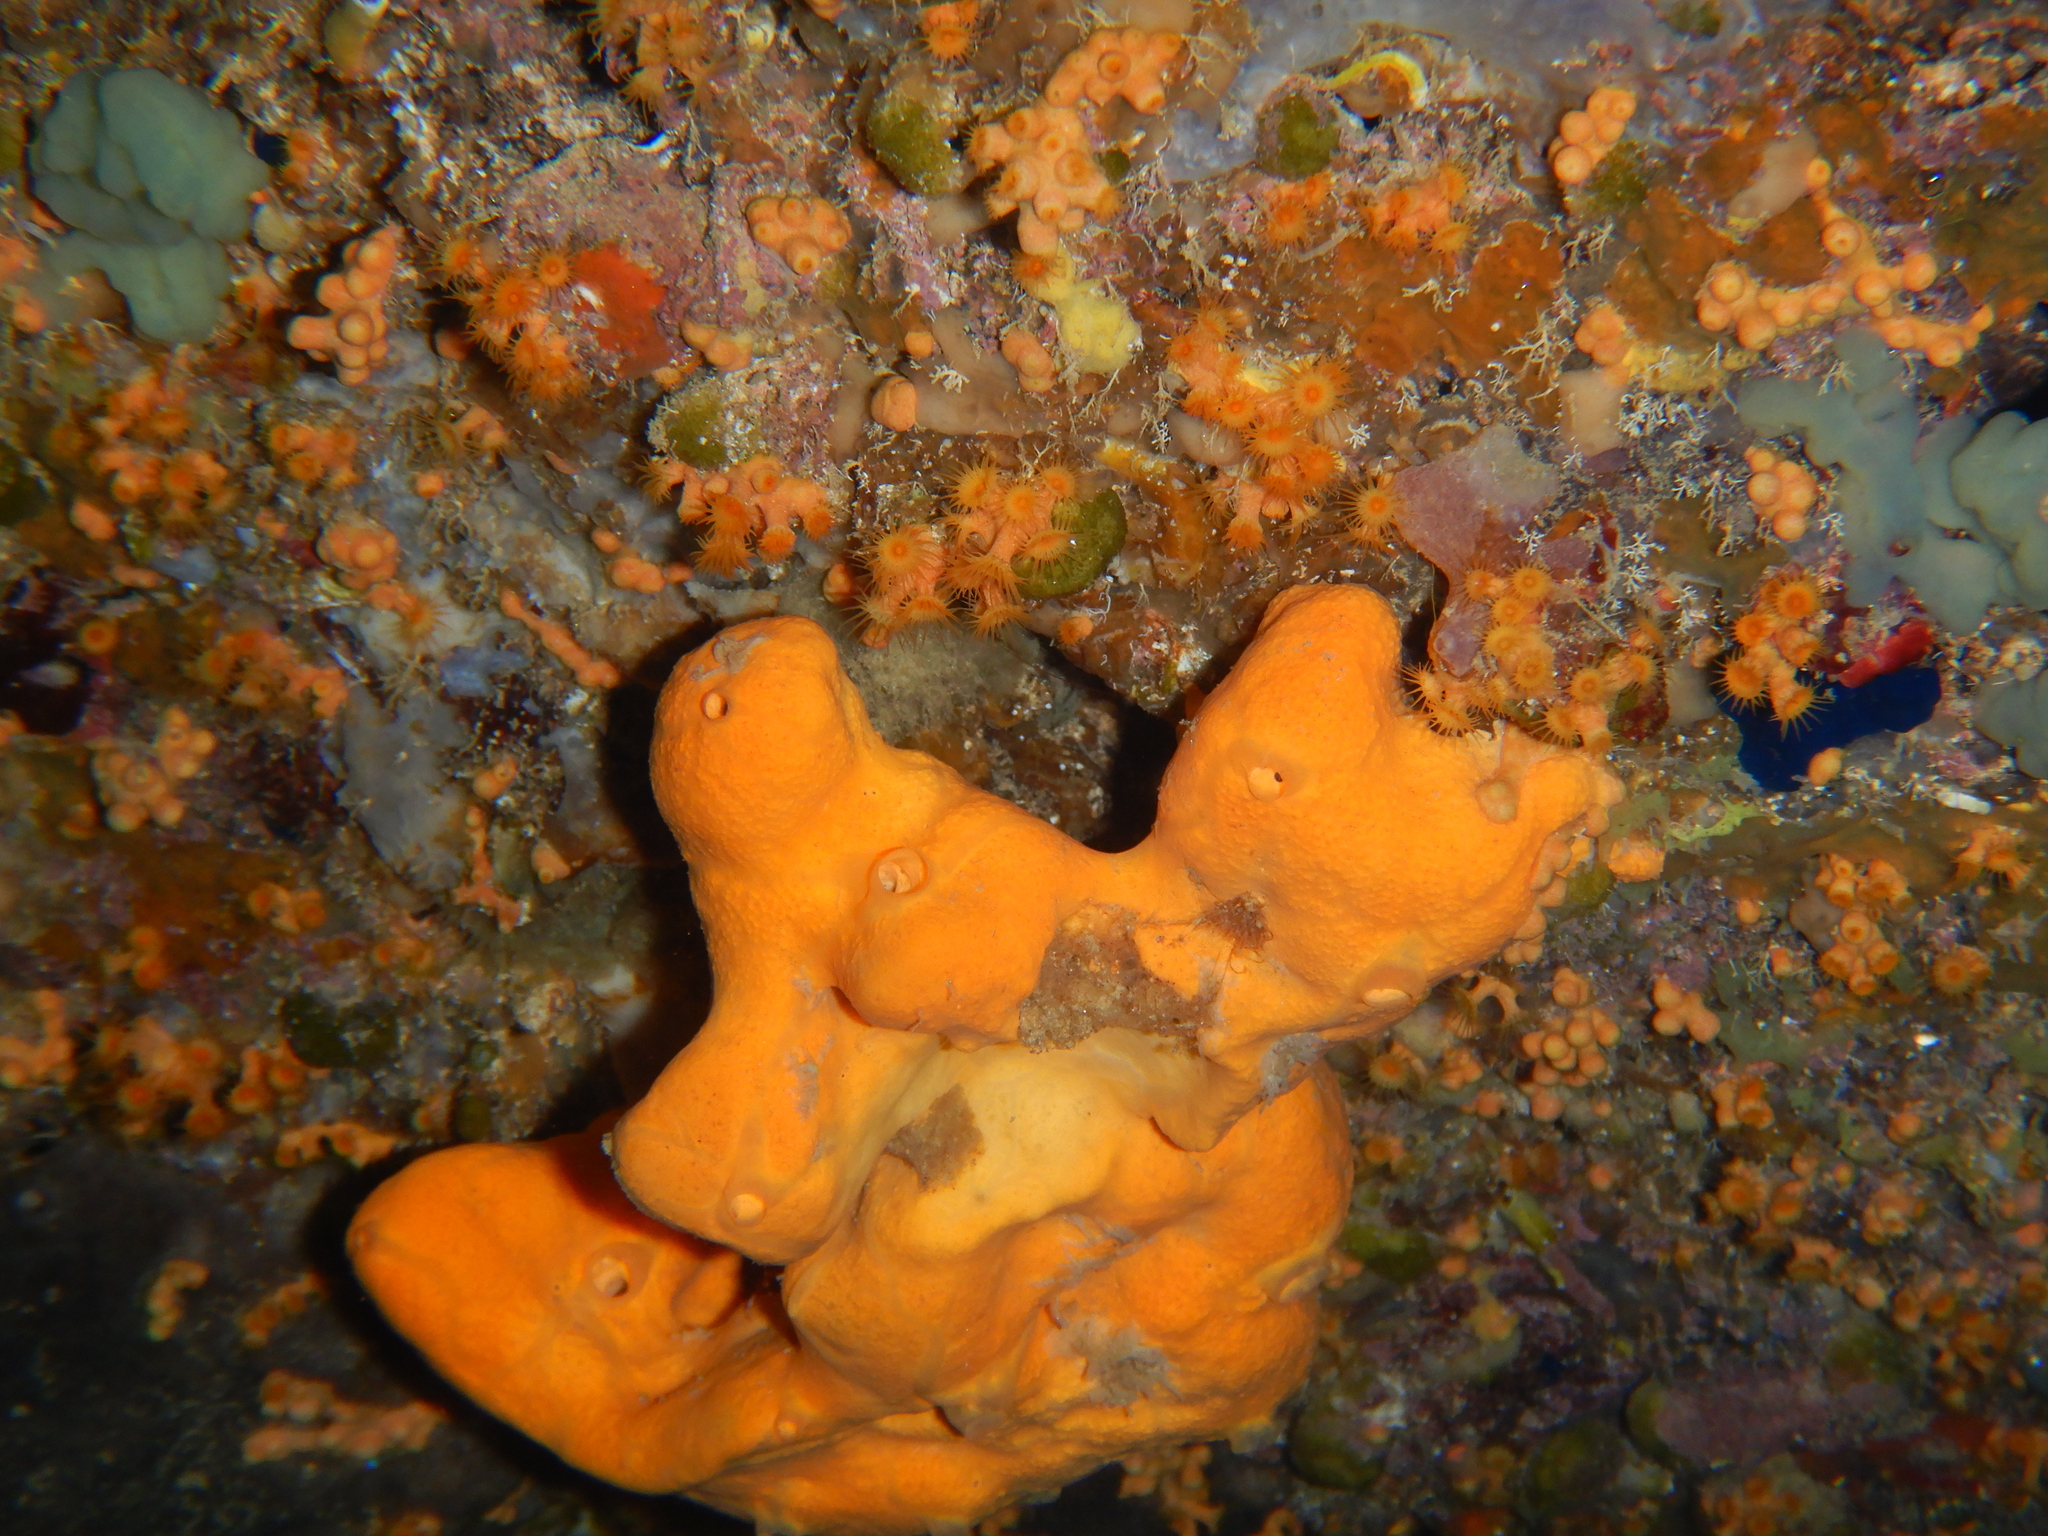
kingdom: Animalia
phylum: Porifera
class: Demospongiae
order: Agelasida
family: Agelasidae
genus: Agelas
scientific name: Agelas oroides
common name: Maltese sponge
